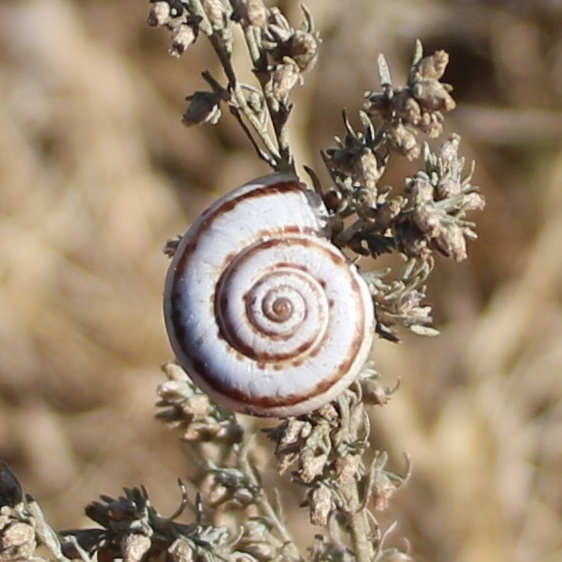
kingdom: Animalia
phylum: Mollusca
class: Gastropoda
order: Stylommatophora
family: Geomitridae
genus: Xeropicta
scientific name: Xeropicta derbentina
